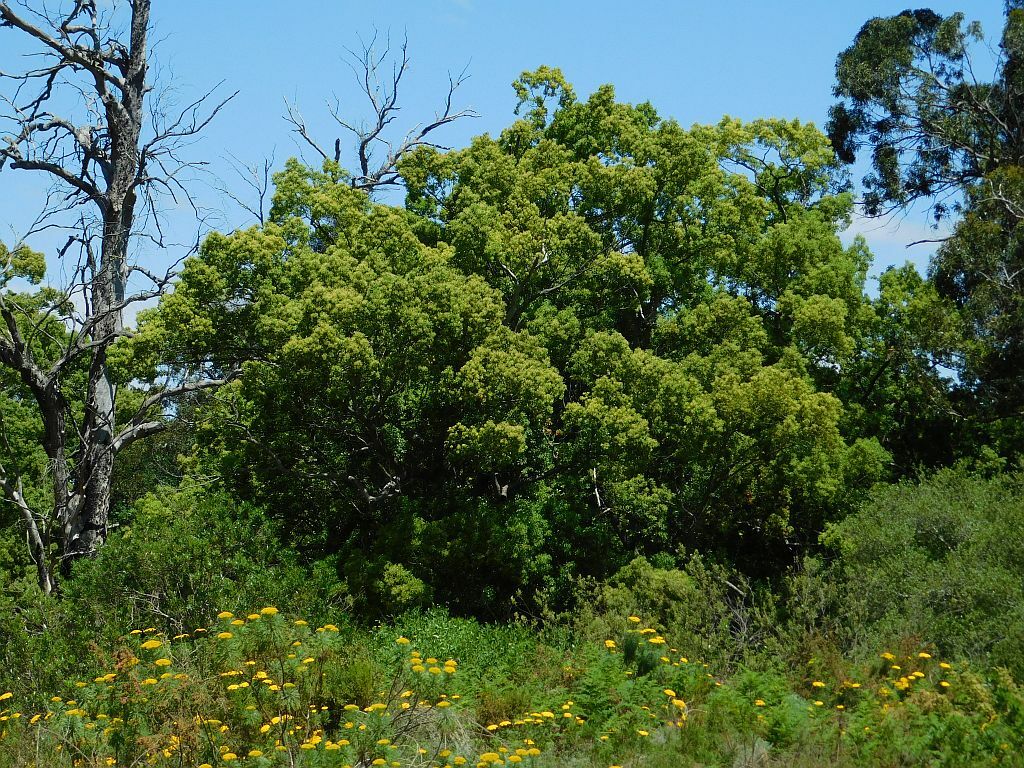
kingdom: Plantae
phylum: Tracheophyta
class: Magnoliopsida
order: Laurales
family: Lauraceae
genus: Cinnamomum
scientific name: Cinnamomum camphora
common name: Camphortree
